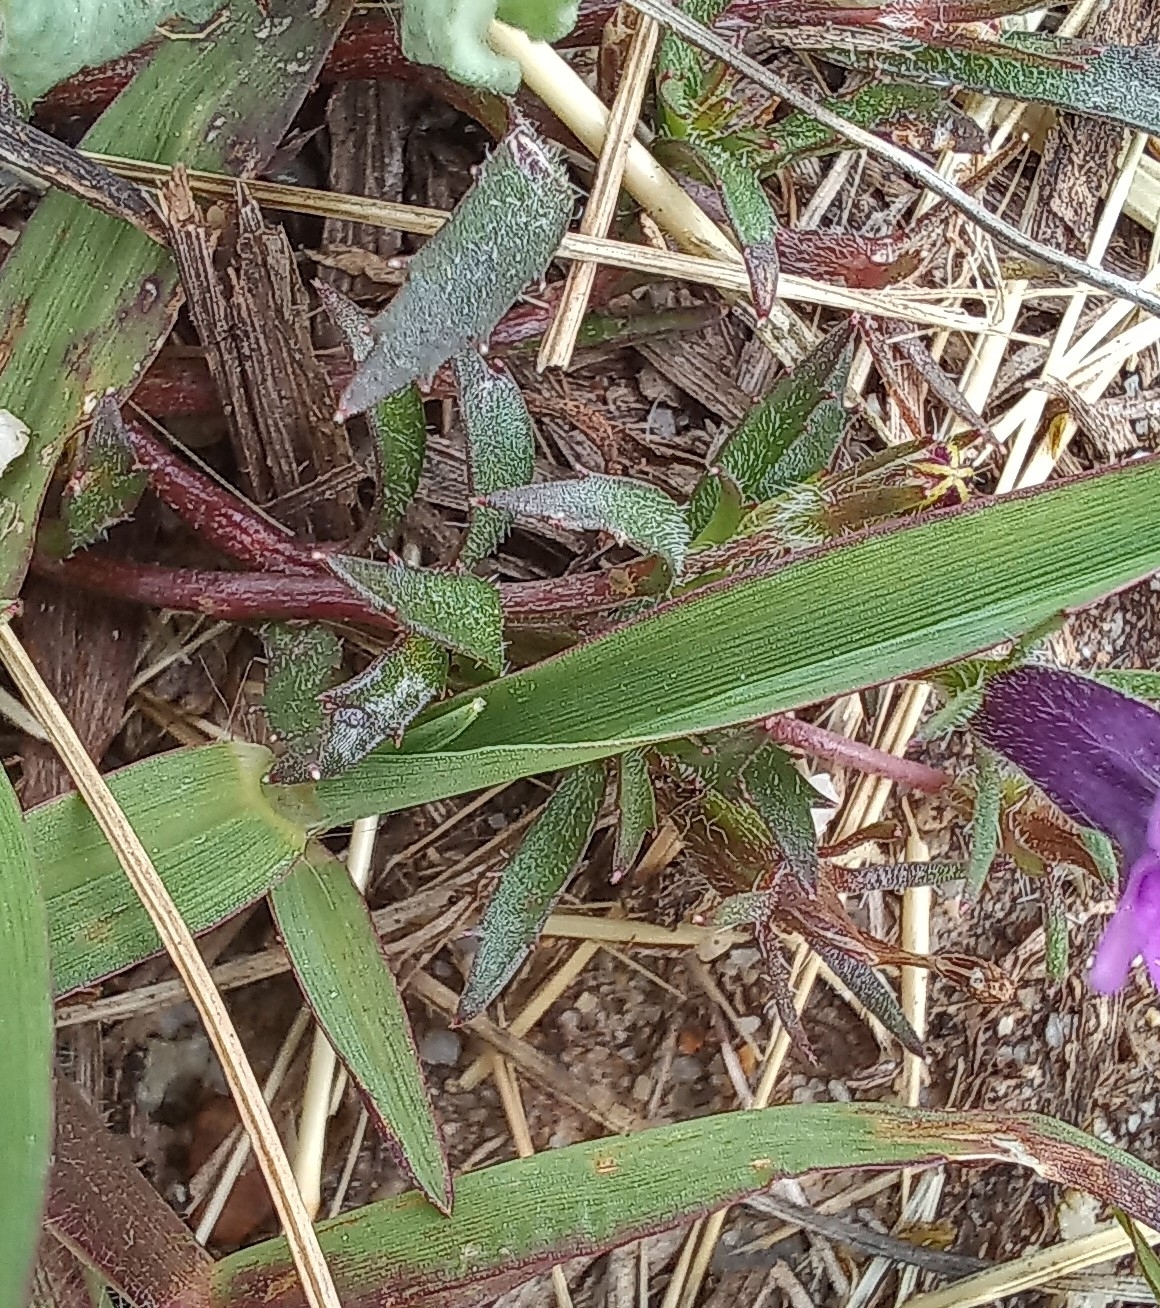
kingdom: Plantae
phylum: Tracheophyta
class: Magnoliopsida
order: Asterales
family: Campanulaceae
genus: Monopsis
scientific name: Monopsis debilis
